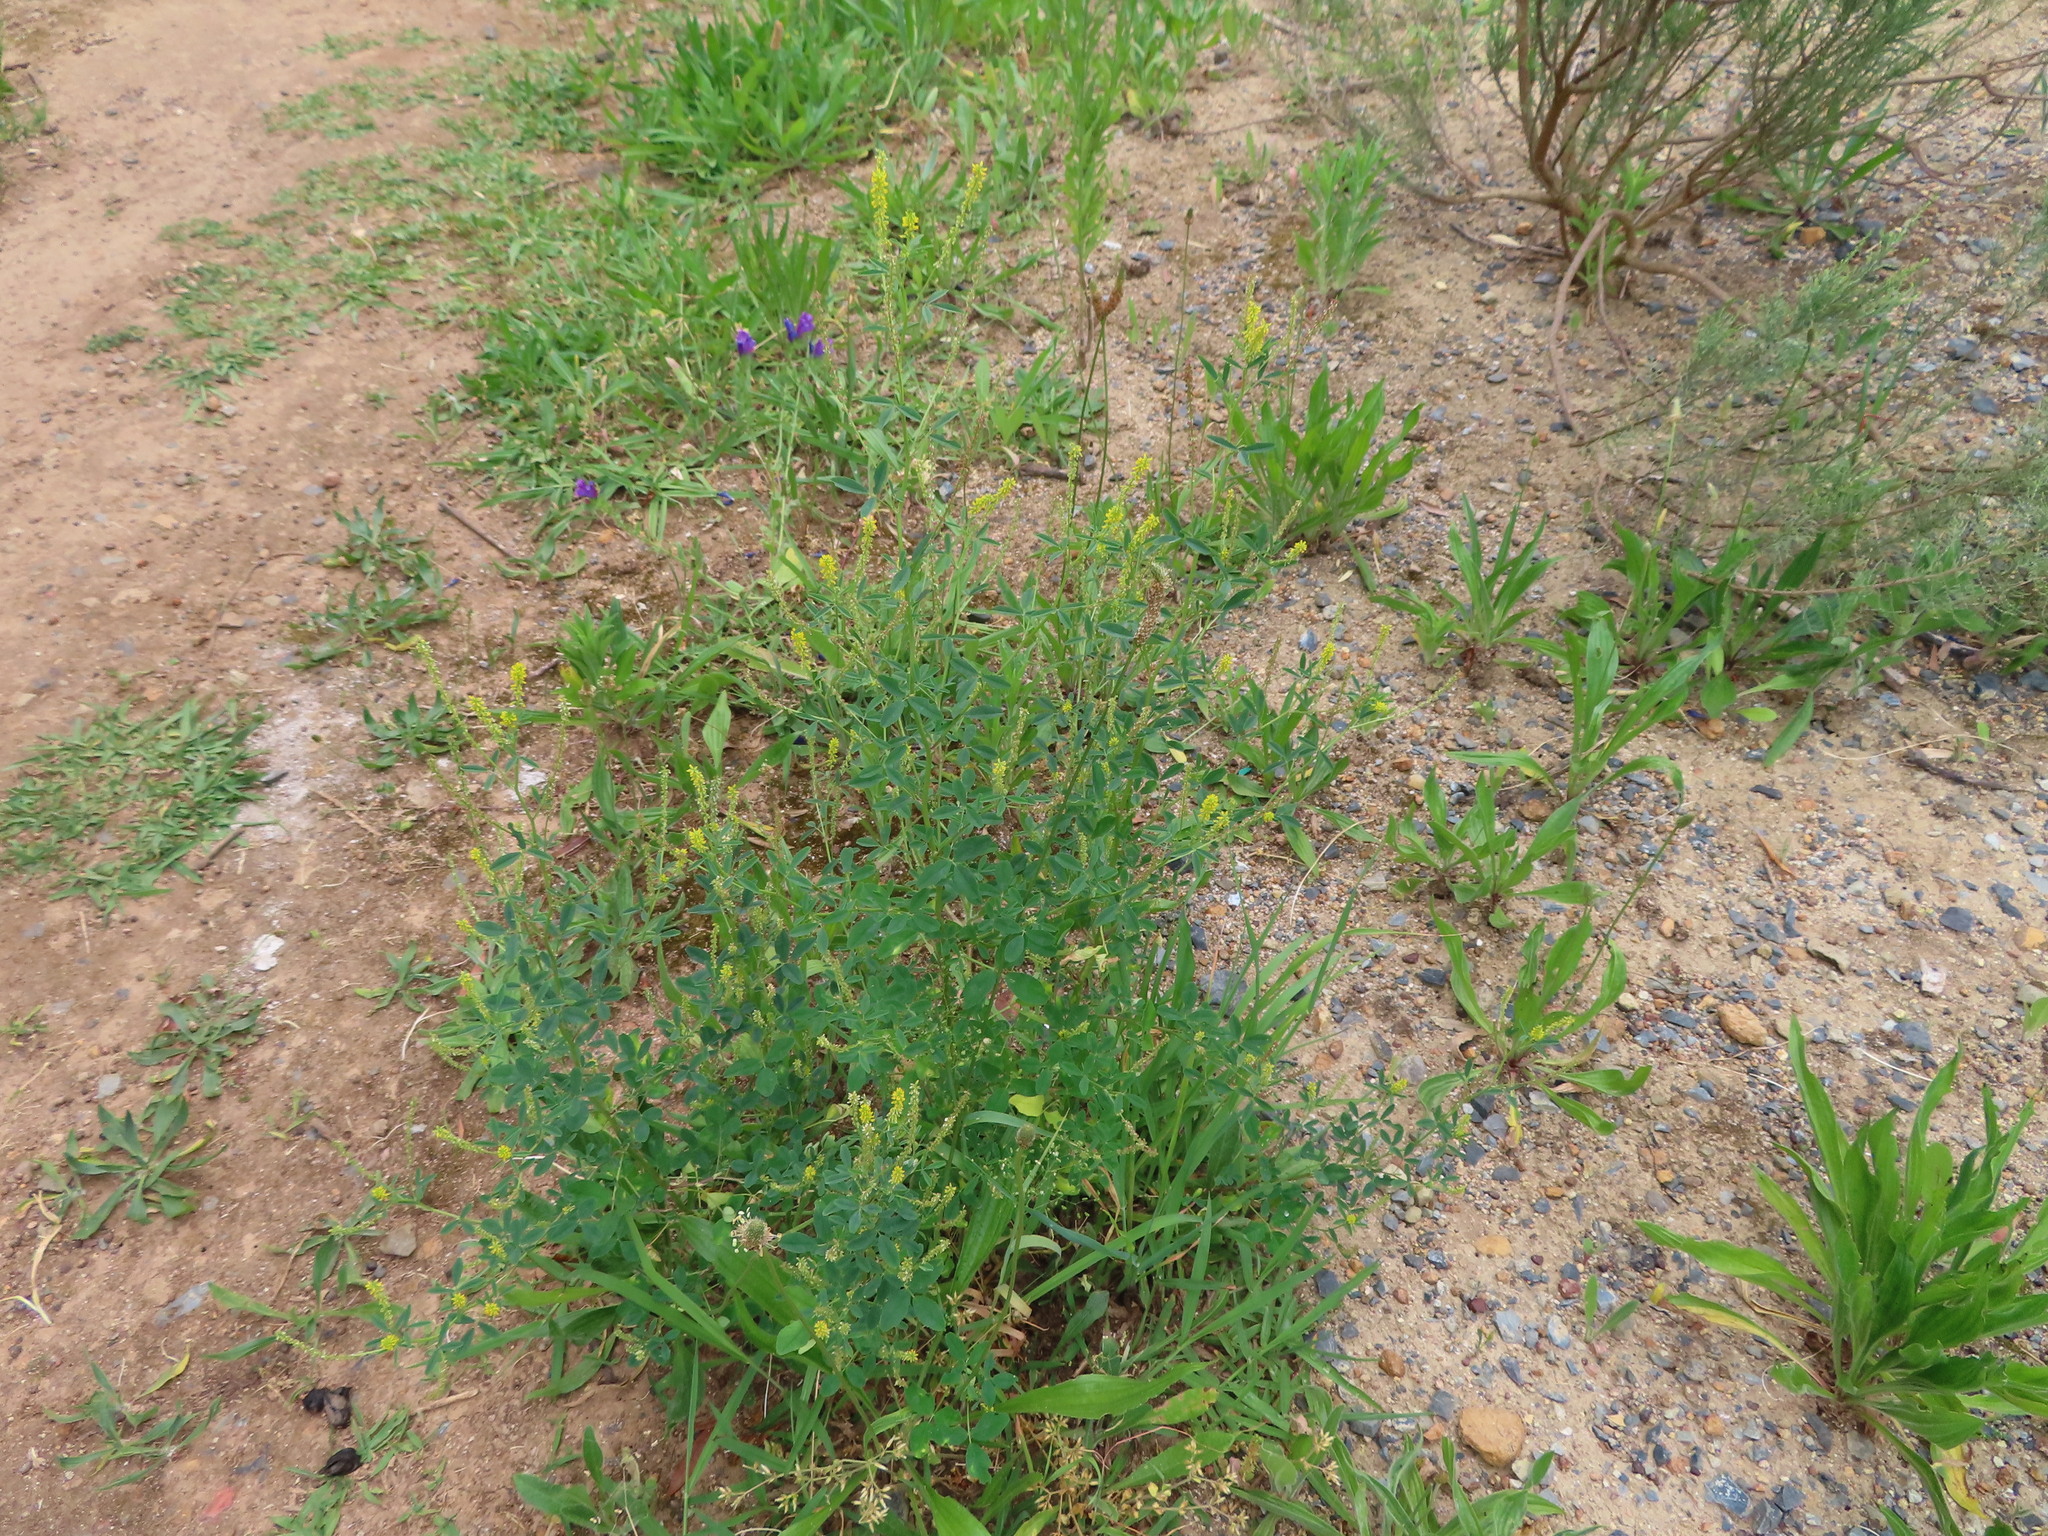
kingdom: Plantae
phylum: Tracheophyta
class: Magnoliopsida
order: Fabales
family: Fabaceae
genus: Melilotus
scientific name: Melilotus indicus
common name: Small melilot
